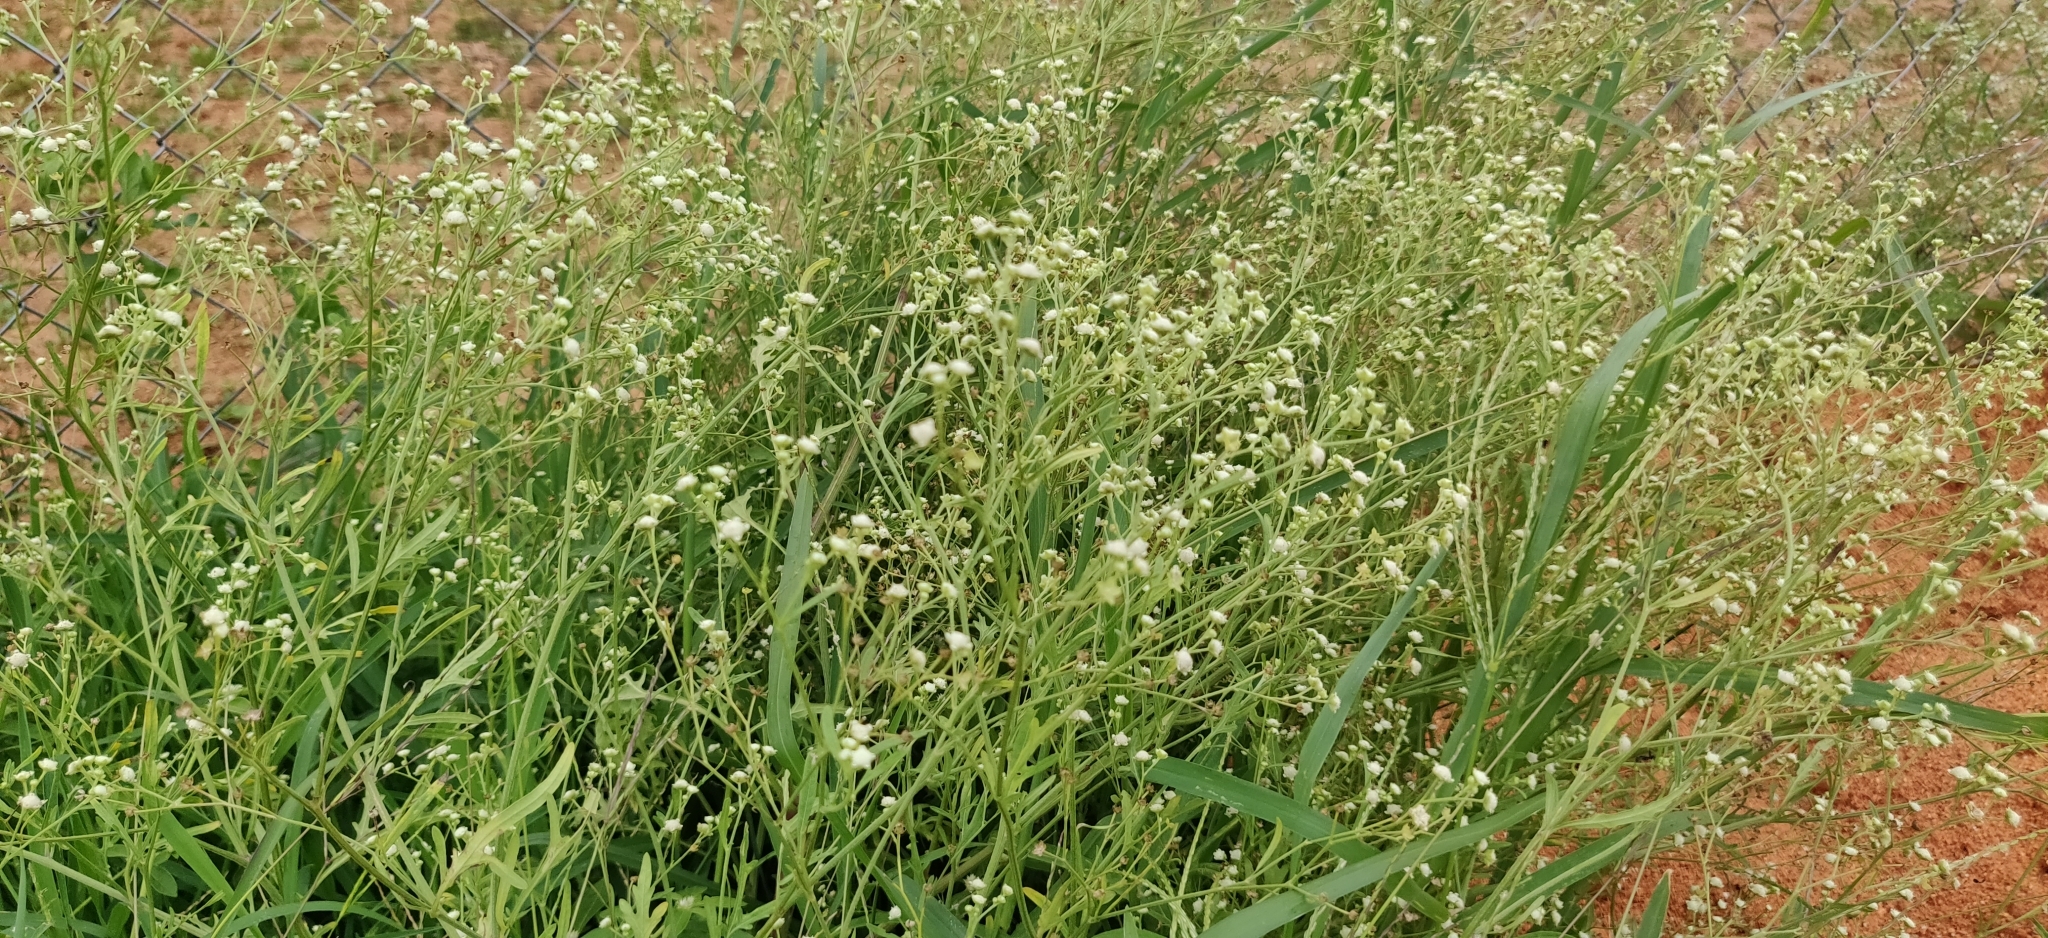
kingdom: Plantae
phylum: Tracheophyta
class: Magnoliopsida
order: Asterales
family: Asteraceae
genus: Parthenium
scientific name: Parthenium hysterophorus
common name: Santa maria feverfew
